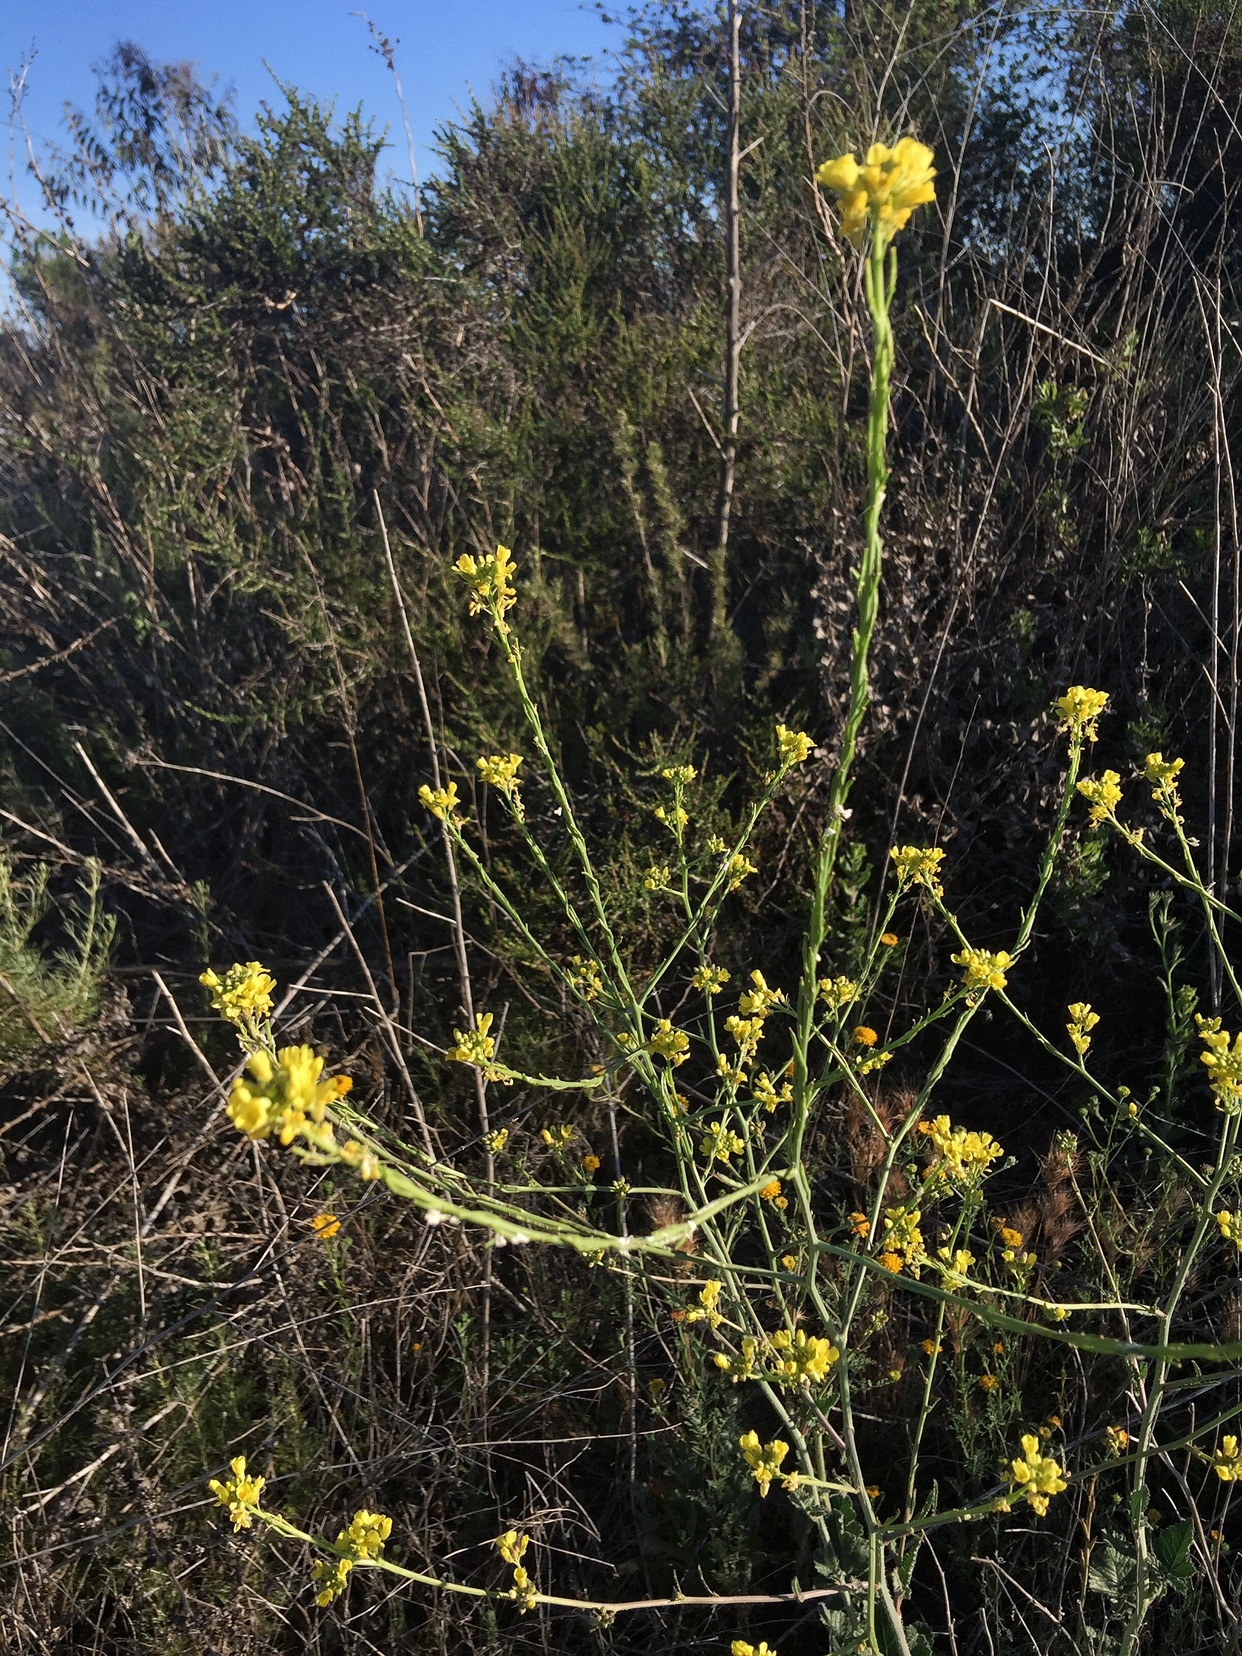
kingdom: Plantae
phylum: Tracheophyta
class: Magnoliopsida
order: Brassicales
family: Brassicaceae
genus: Hirschfeldia
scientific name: Hirschfeldia incana
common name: Hoary mustard
